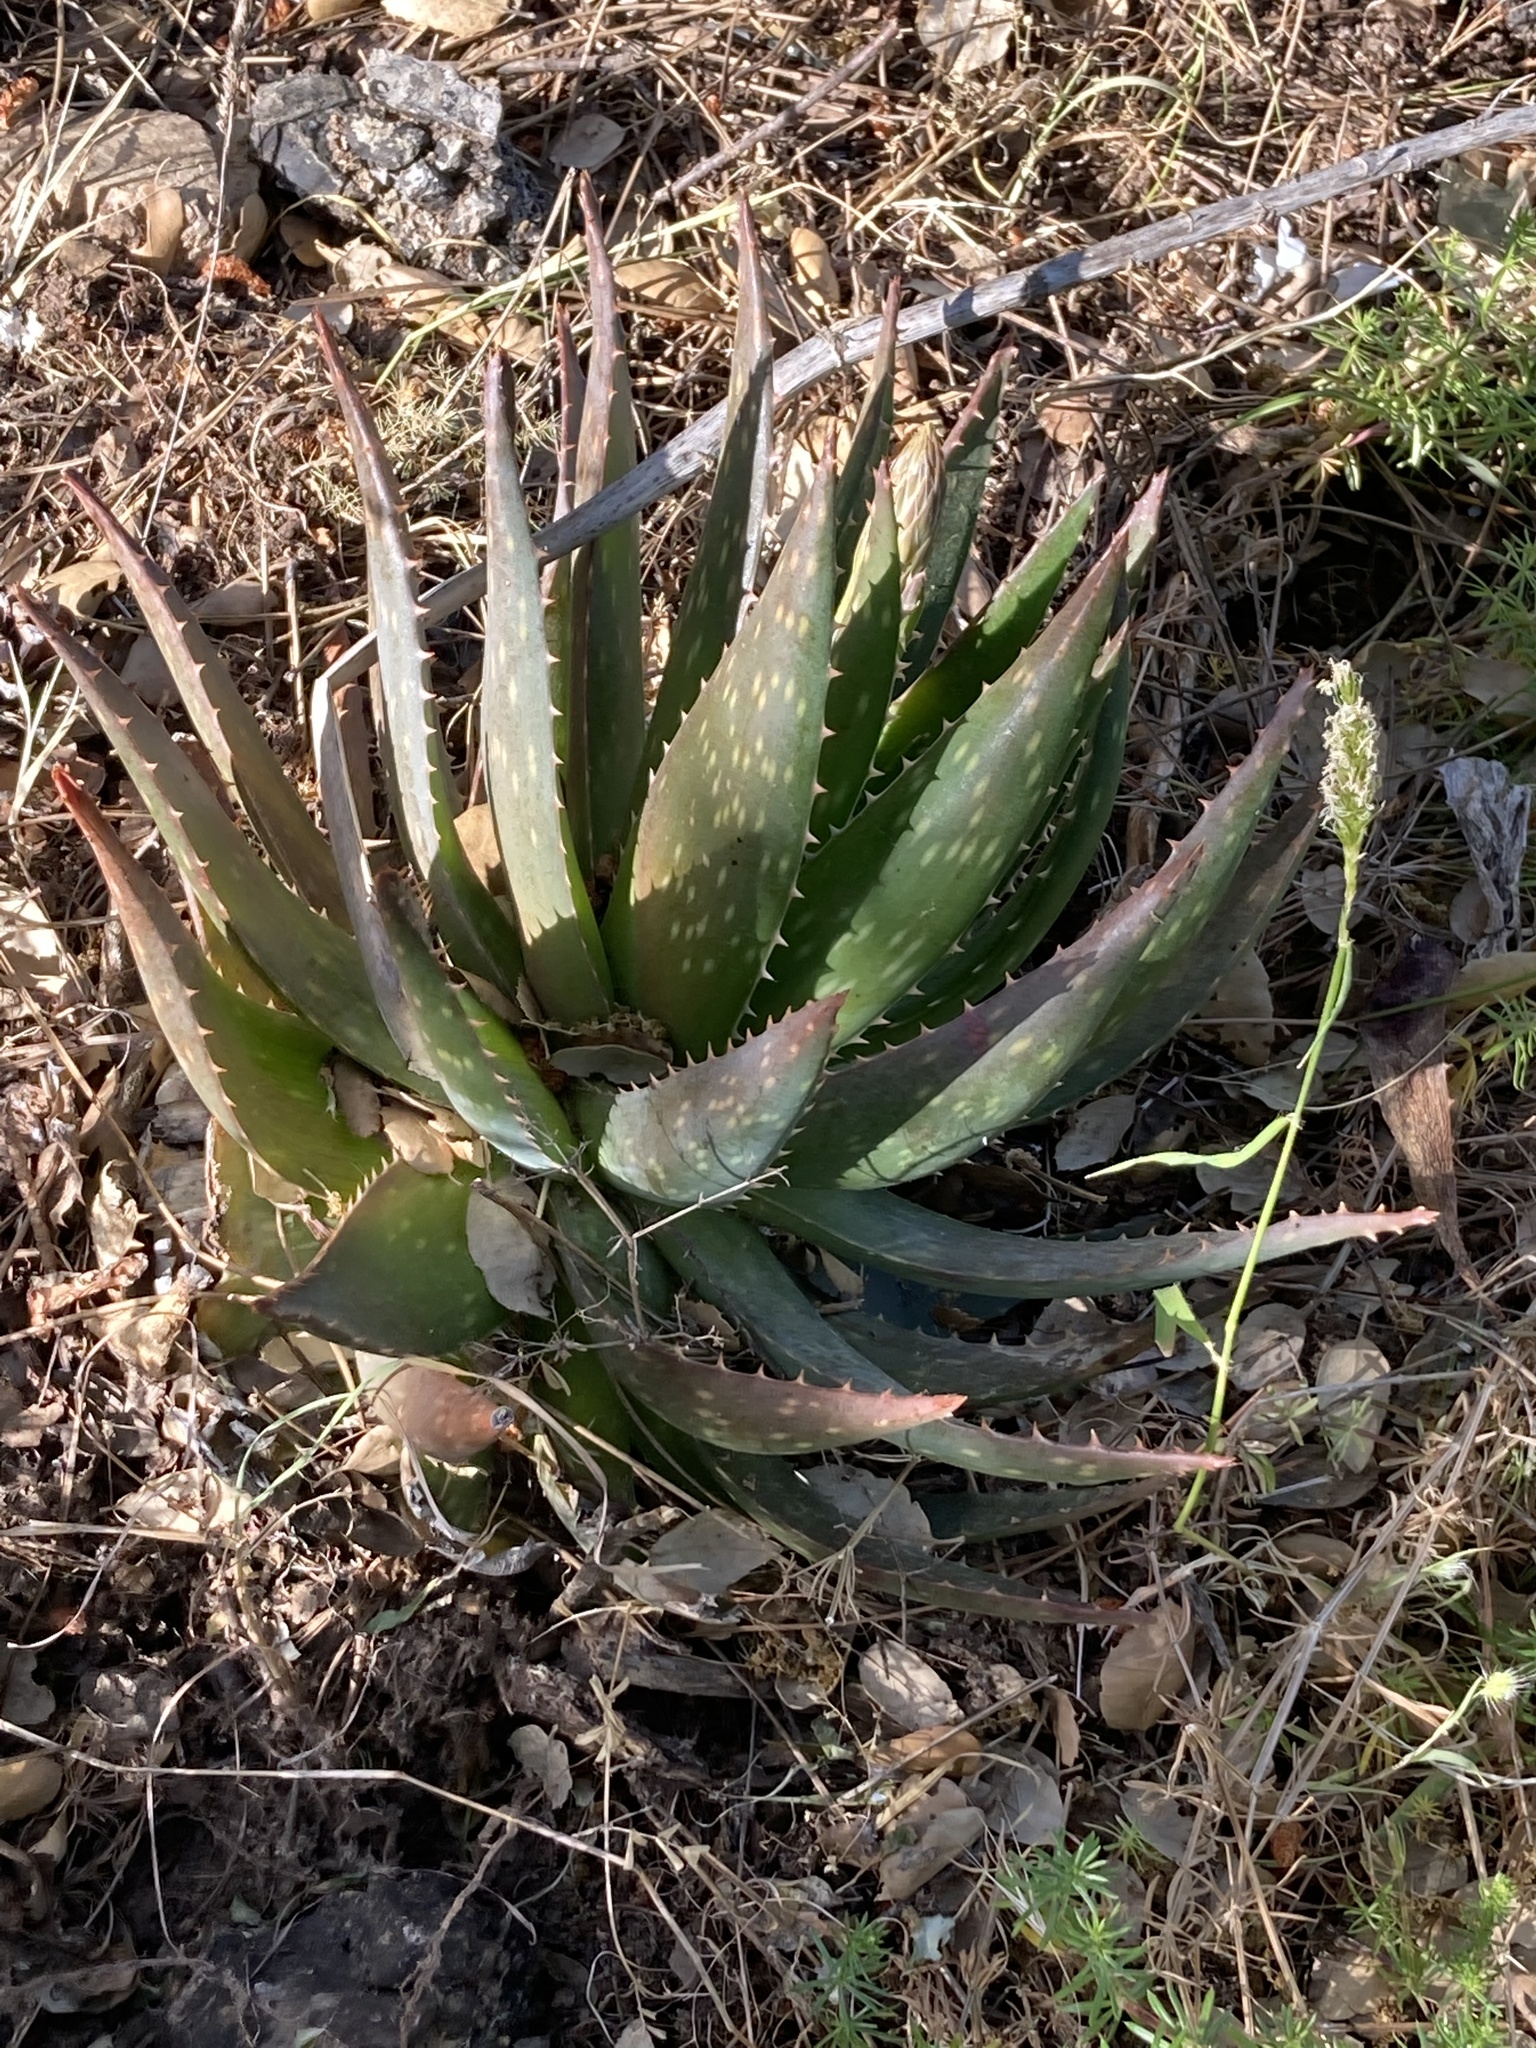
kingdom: Plantae
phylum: Tracheophyta
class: Liliopsida
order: Asparagales
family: Asphodelaceae
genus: Aloe
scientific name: Aloe maculata
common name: Broadleaf aloe
